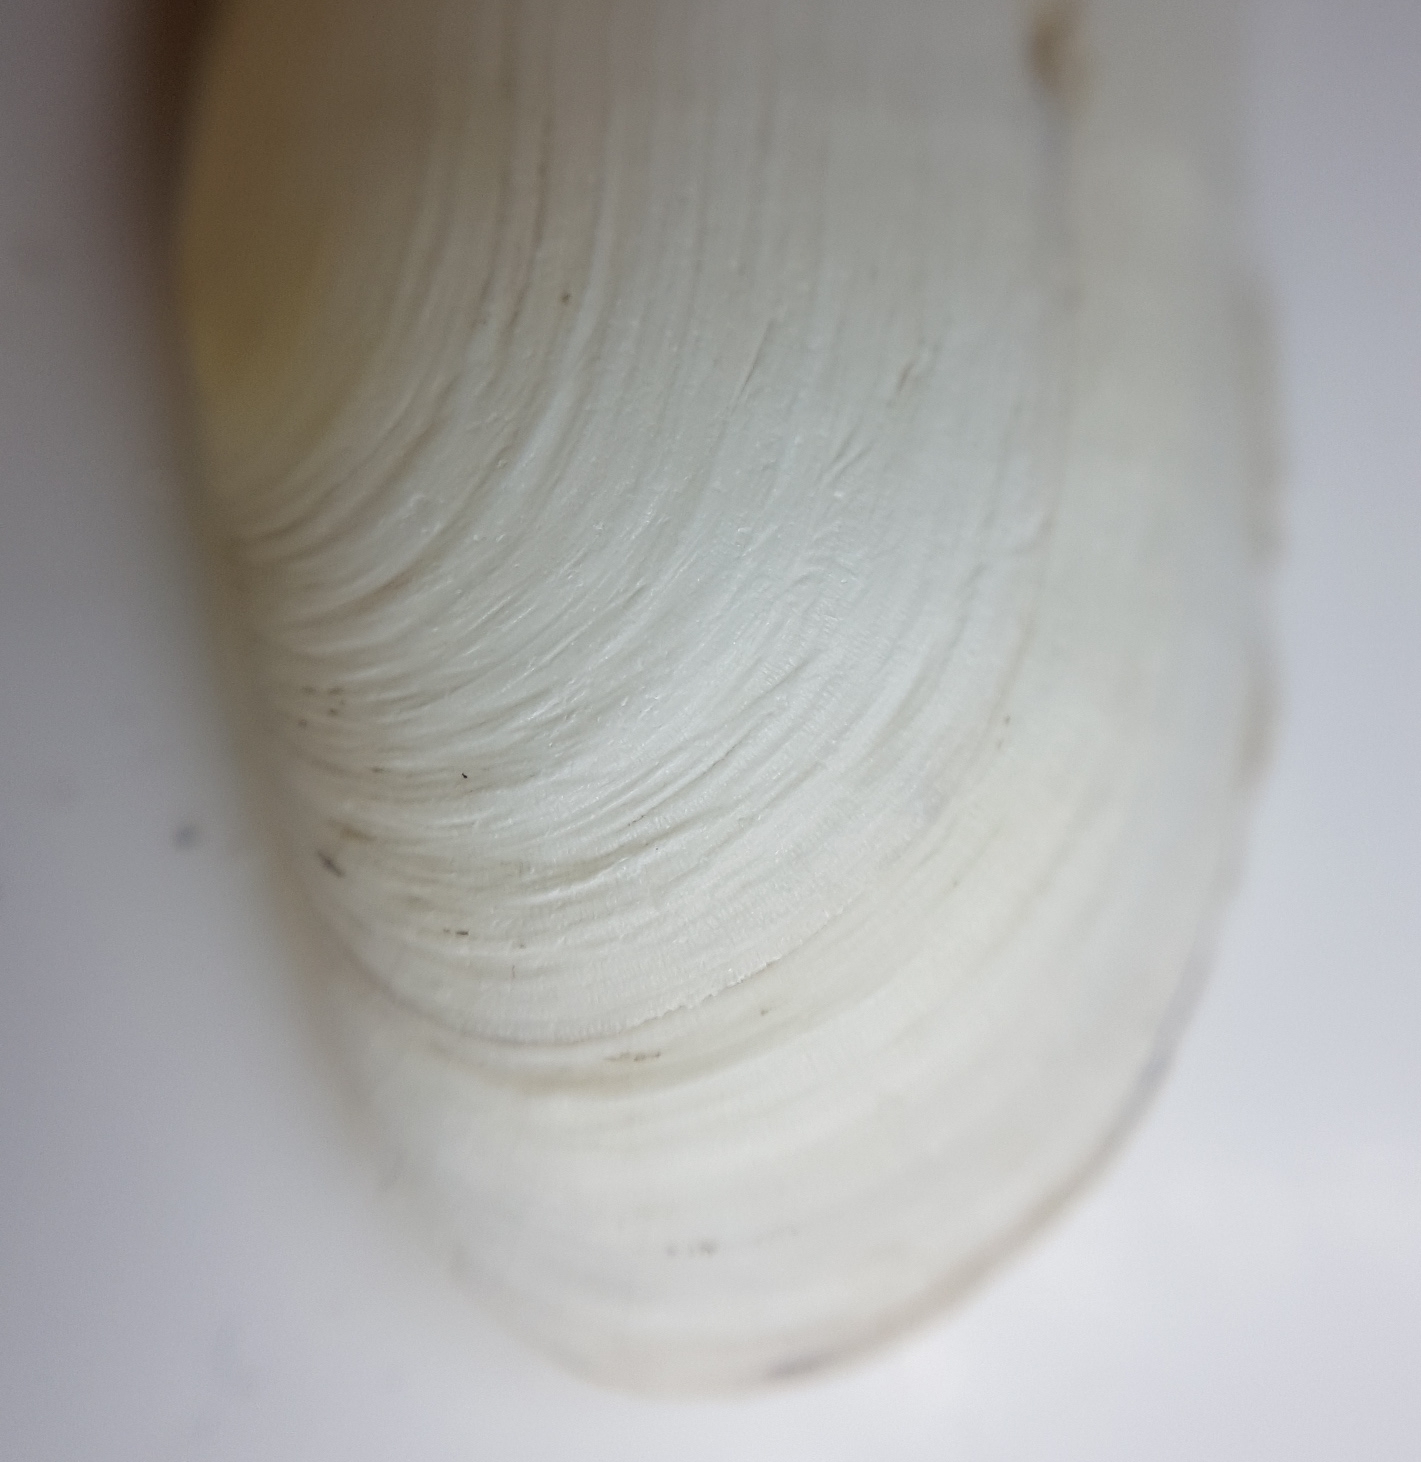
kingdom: Animalia
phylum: Mollusca
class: Bivalvia
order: Cardiida
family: Solecurtidae
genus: Azorinus
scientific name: Azorinus chamasolen
